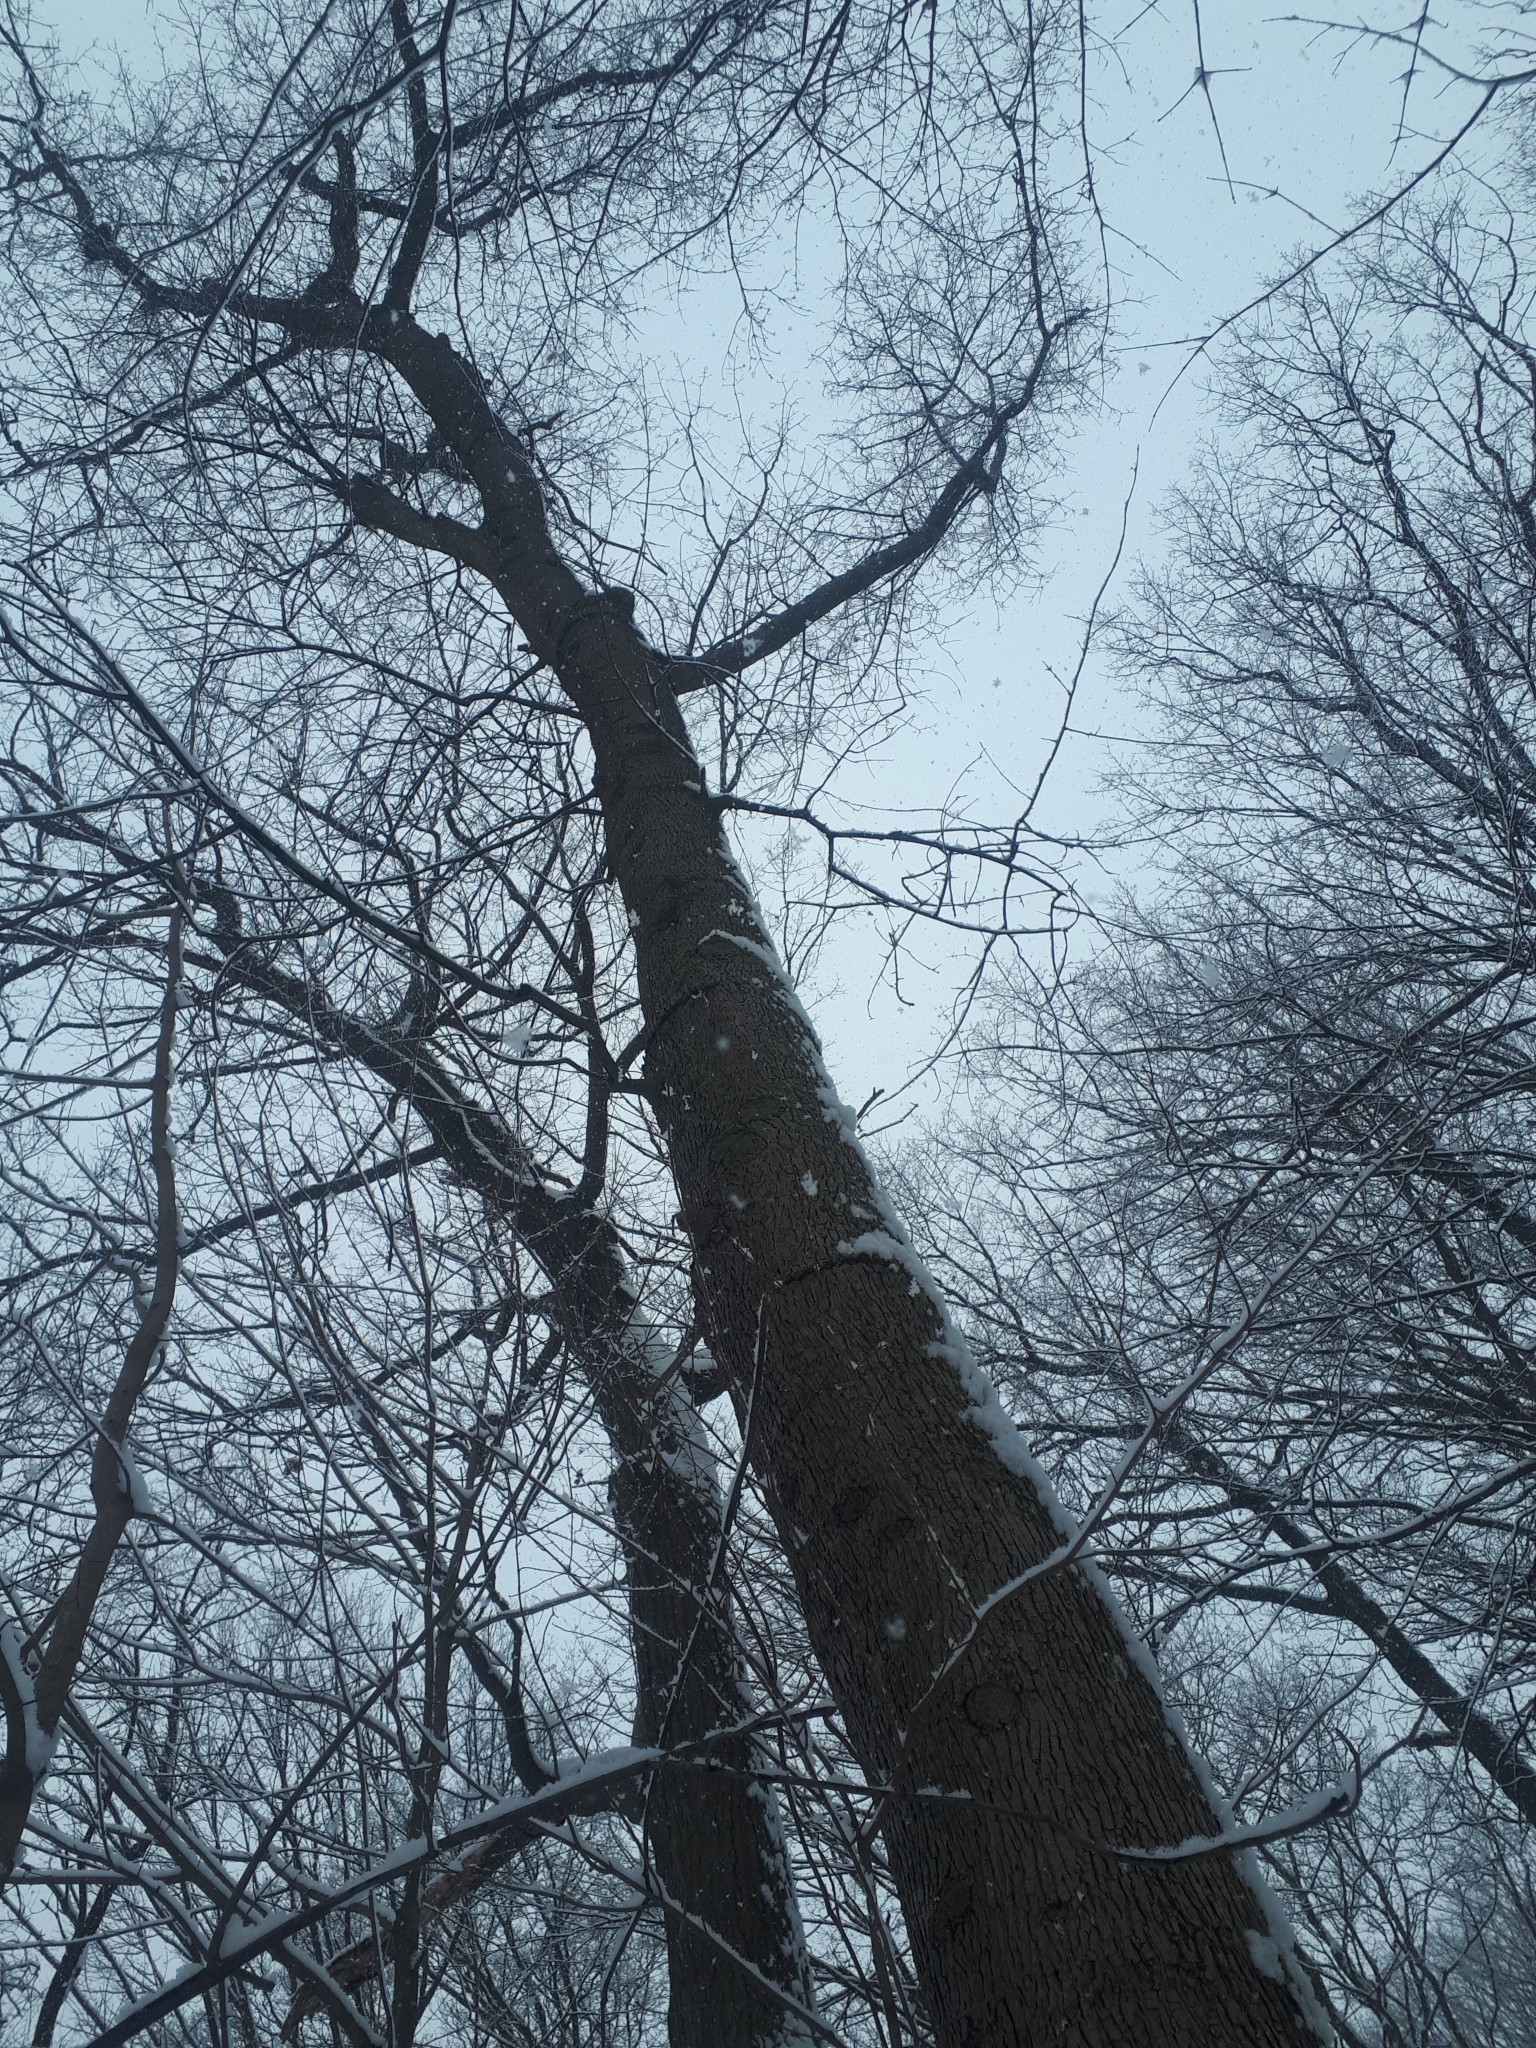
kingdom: Plantae
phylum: Tracheophyta
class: Magnoliopsida
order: Fagales
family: Juglandaceae
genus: Carya
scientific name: Carya cordiformis
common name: Bitternut hickory
